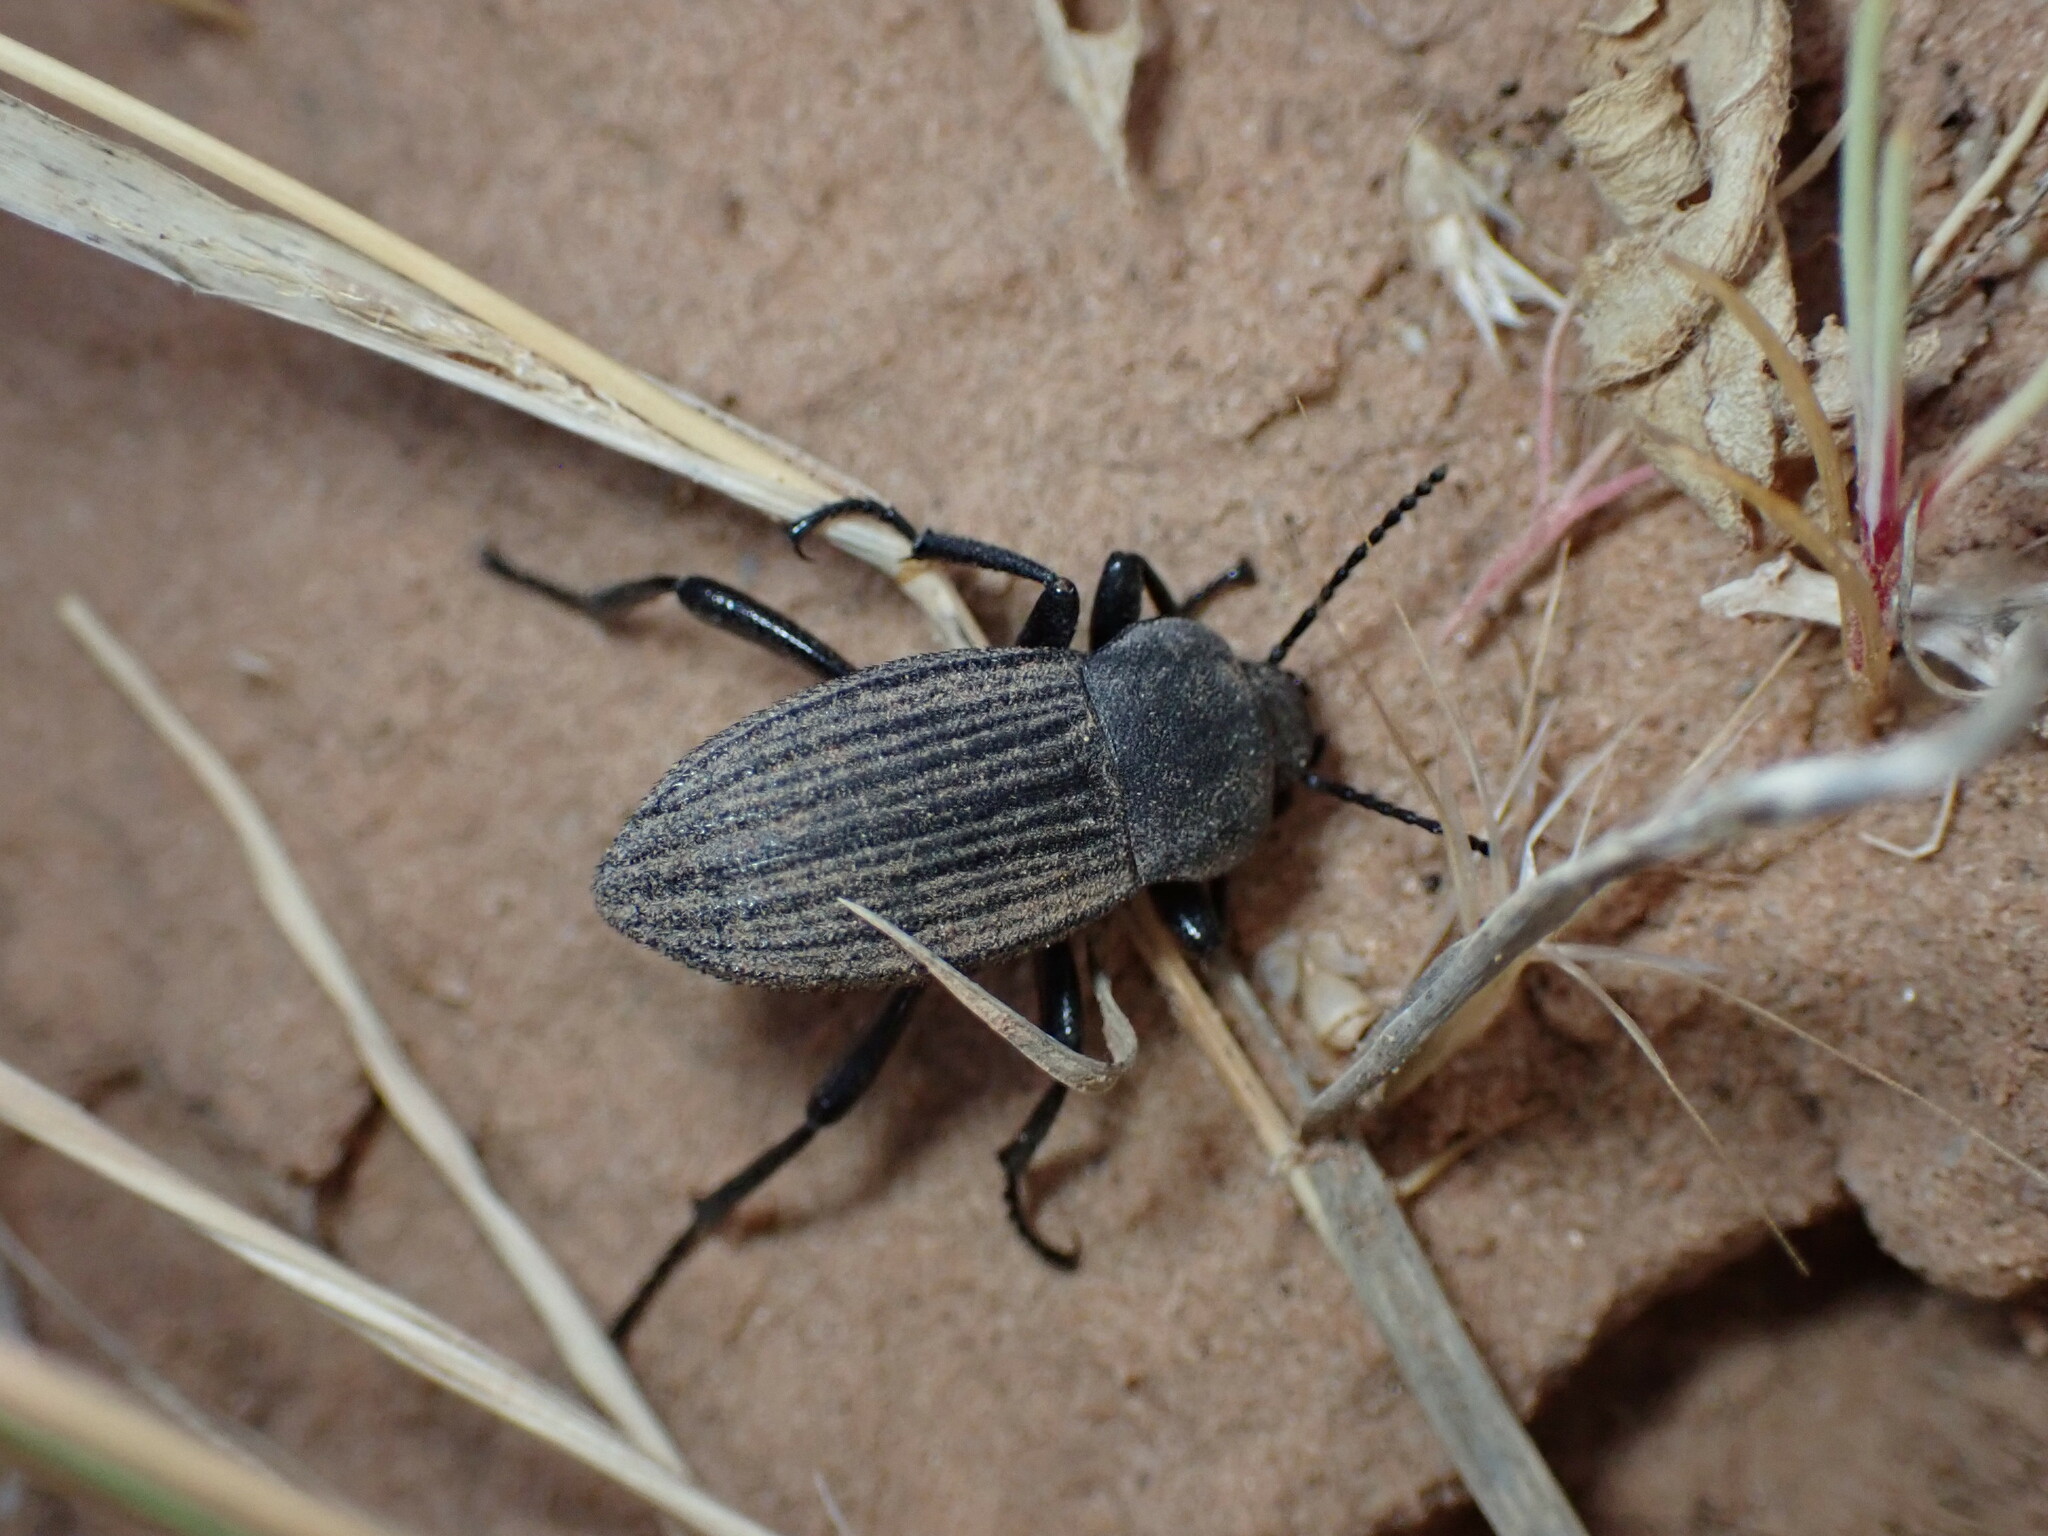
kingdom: Animalia
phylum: Arthropoda
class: Insecta
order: Coleoptera
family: Tenebrionidae
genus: Eleodes
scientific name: Eleodes tricostata
